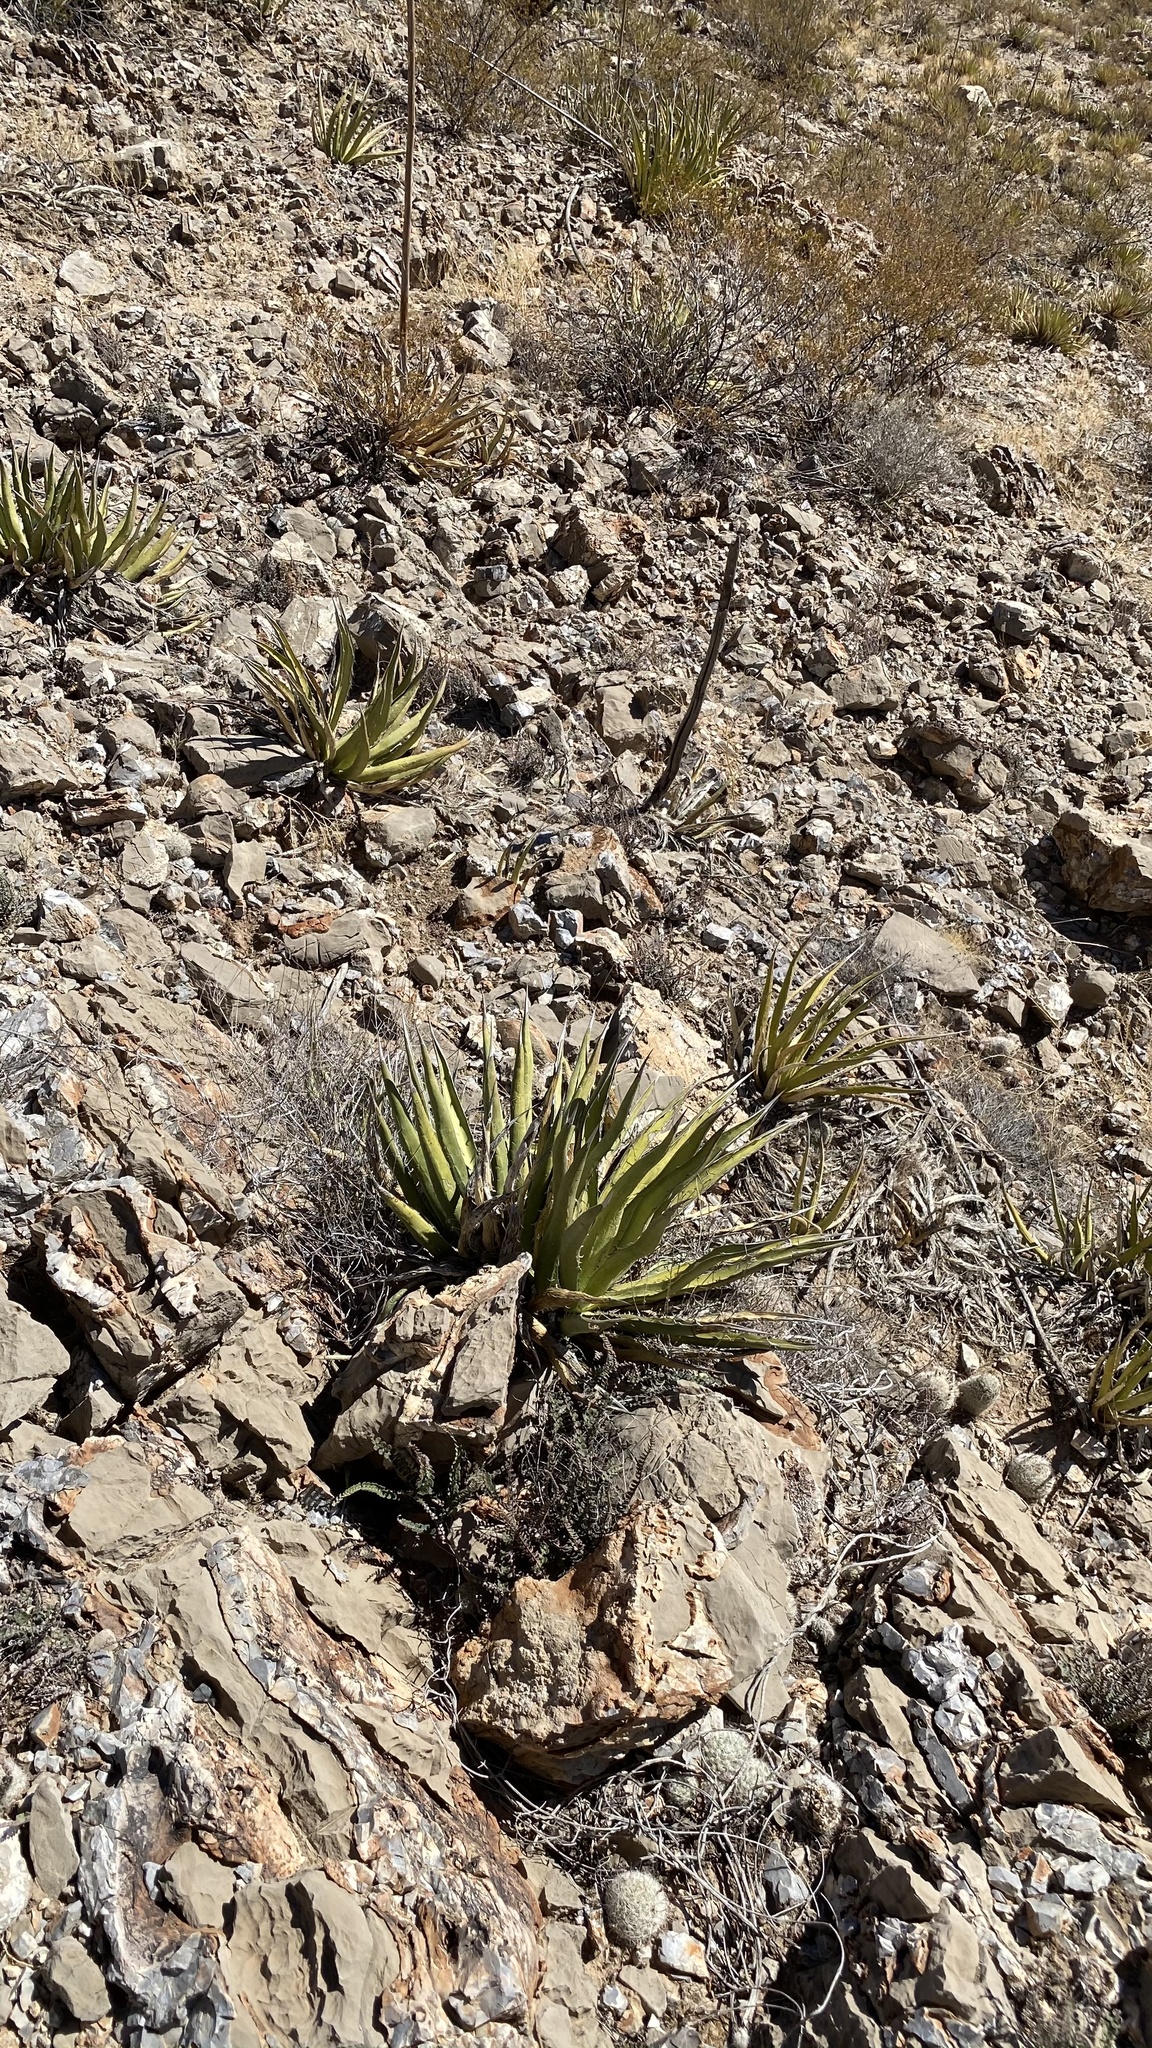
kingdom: Plantae
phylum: Tracheophyta
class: Liliopsida
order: Asparagales
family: Asparagaceae
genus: Agave
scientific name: Agave lechuguilla
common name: Lecheguilla agave
